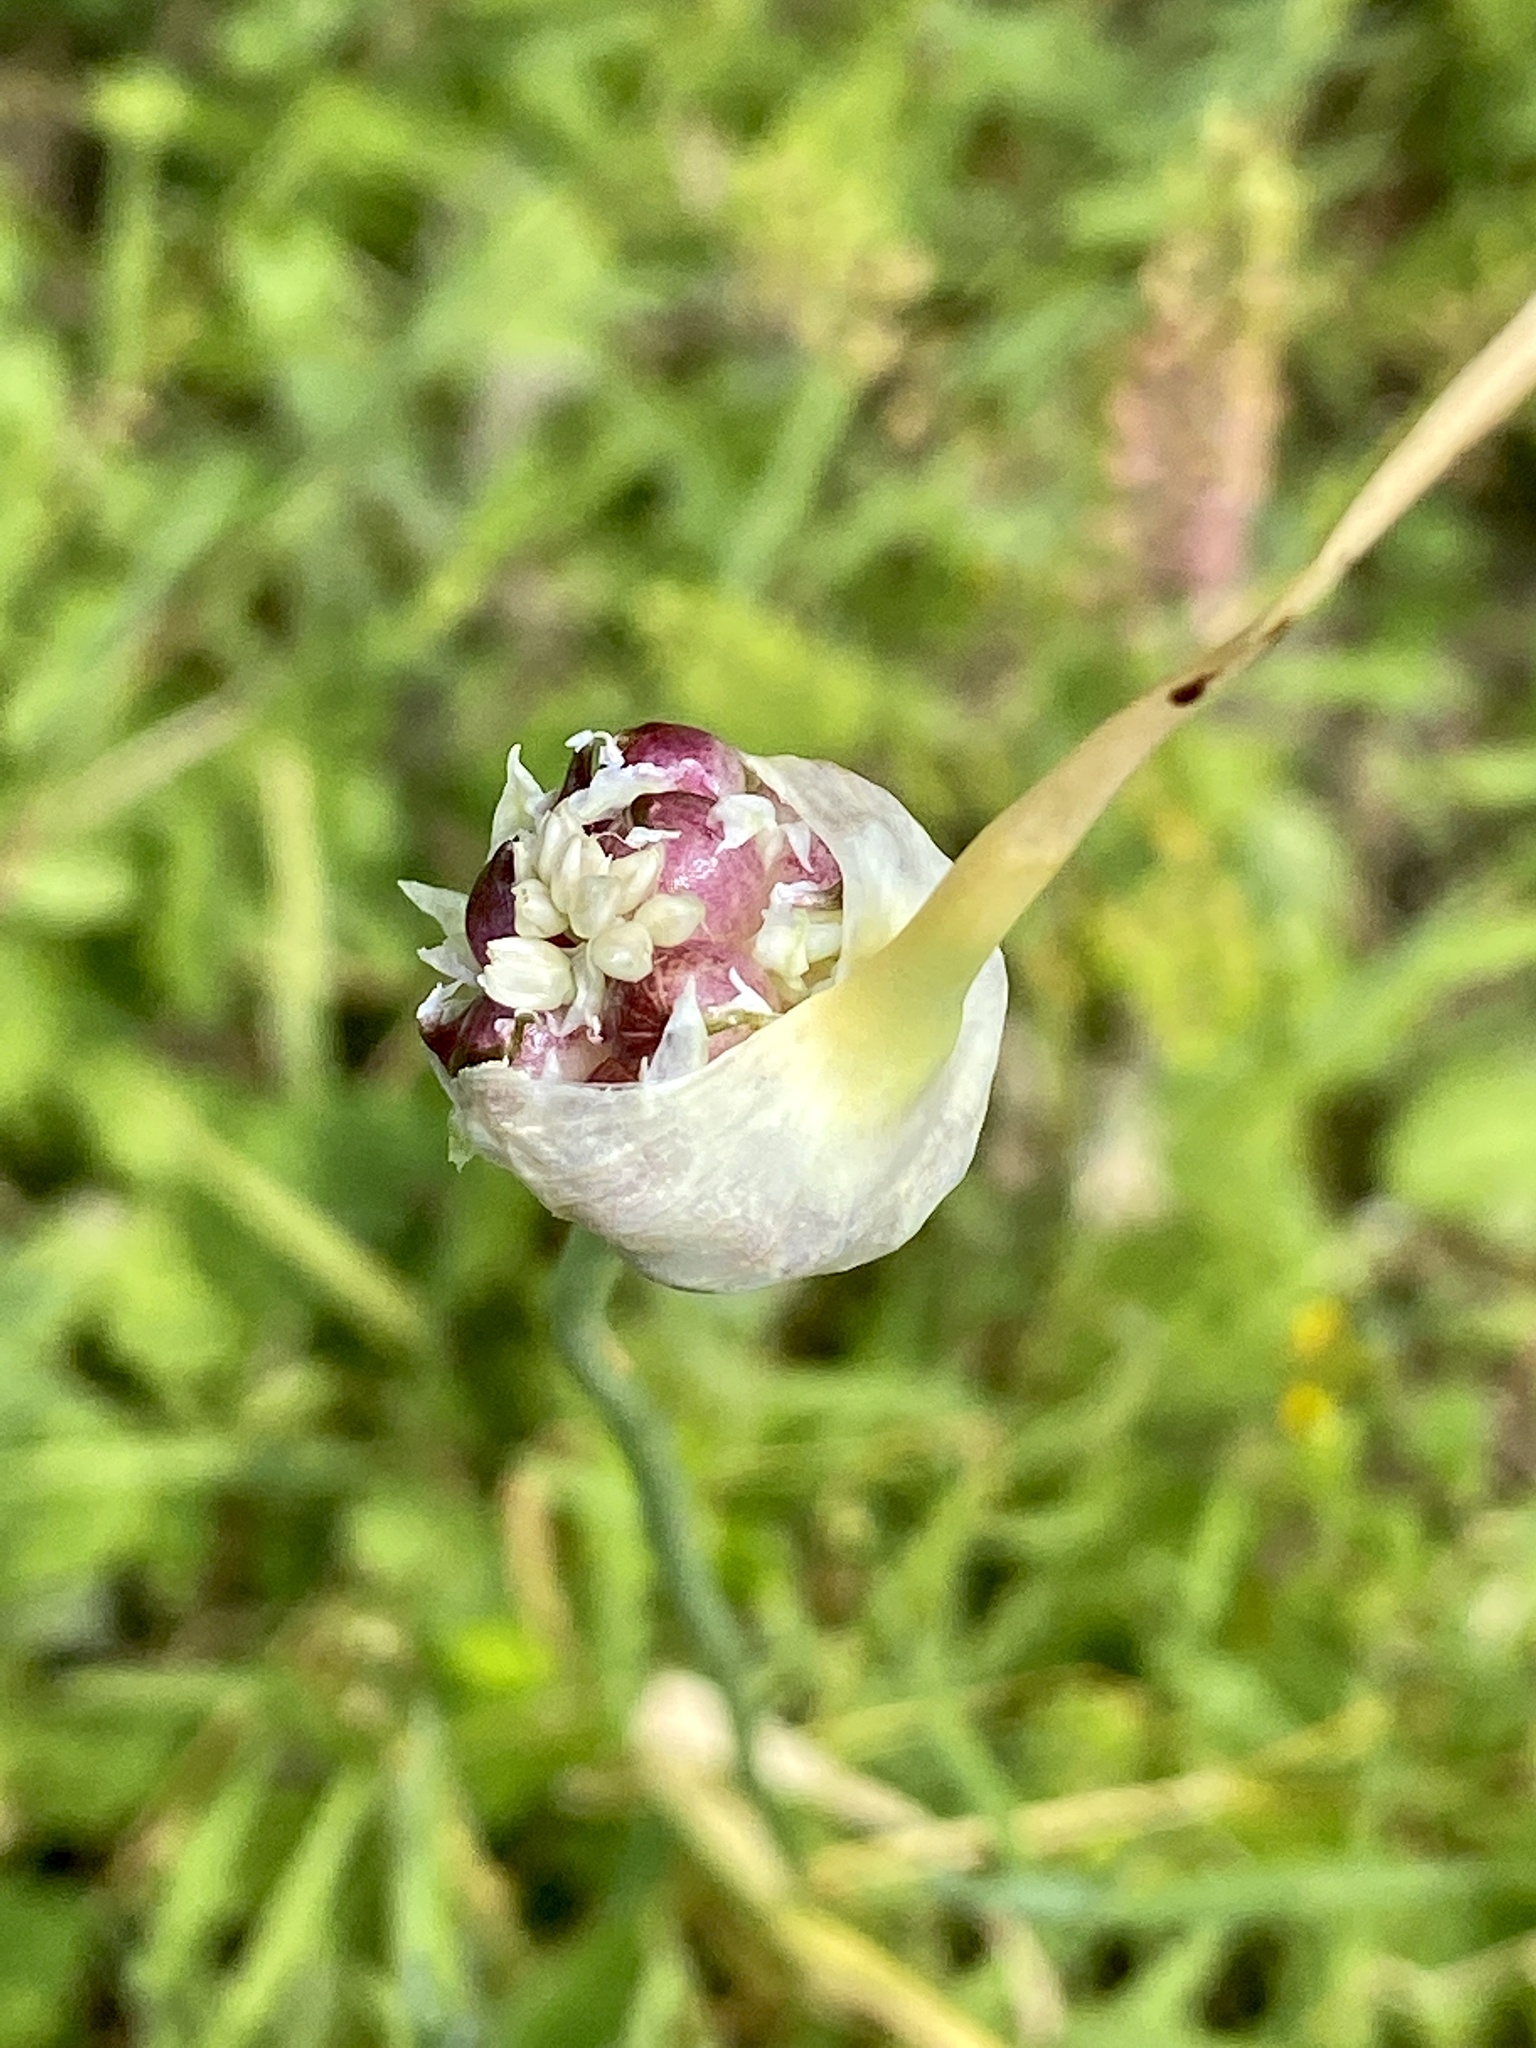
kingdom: Plantae
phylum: Tracheophyta
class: Liliopsida
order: Asparagales
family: Amaryllidaceae
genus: Allium
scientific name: Allium vineale
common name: Crow garlic
